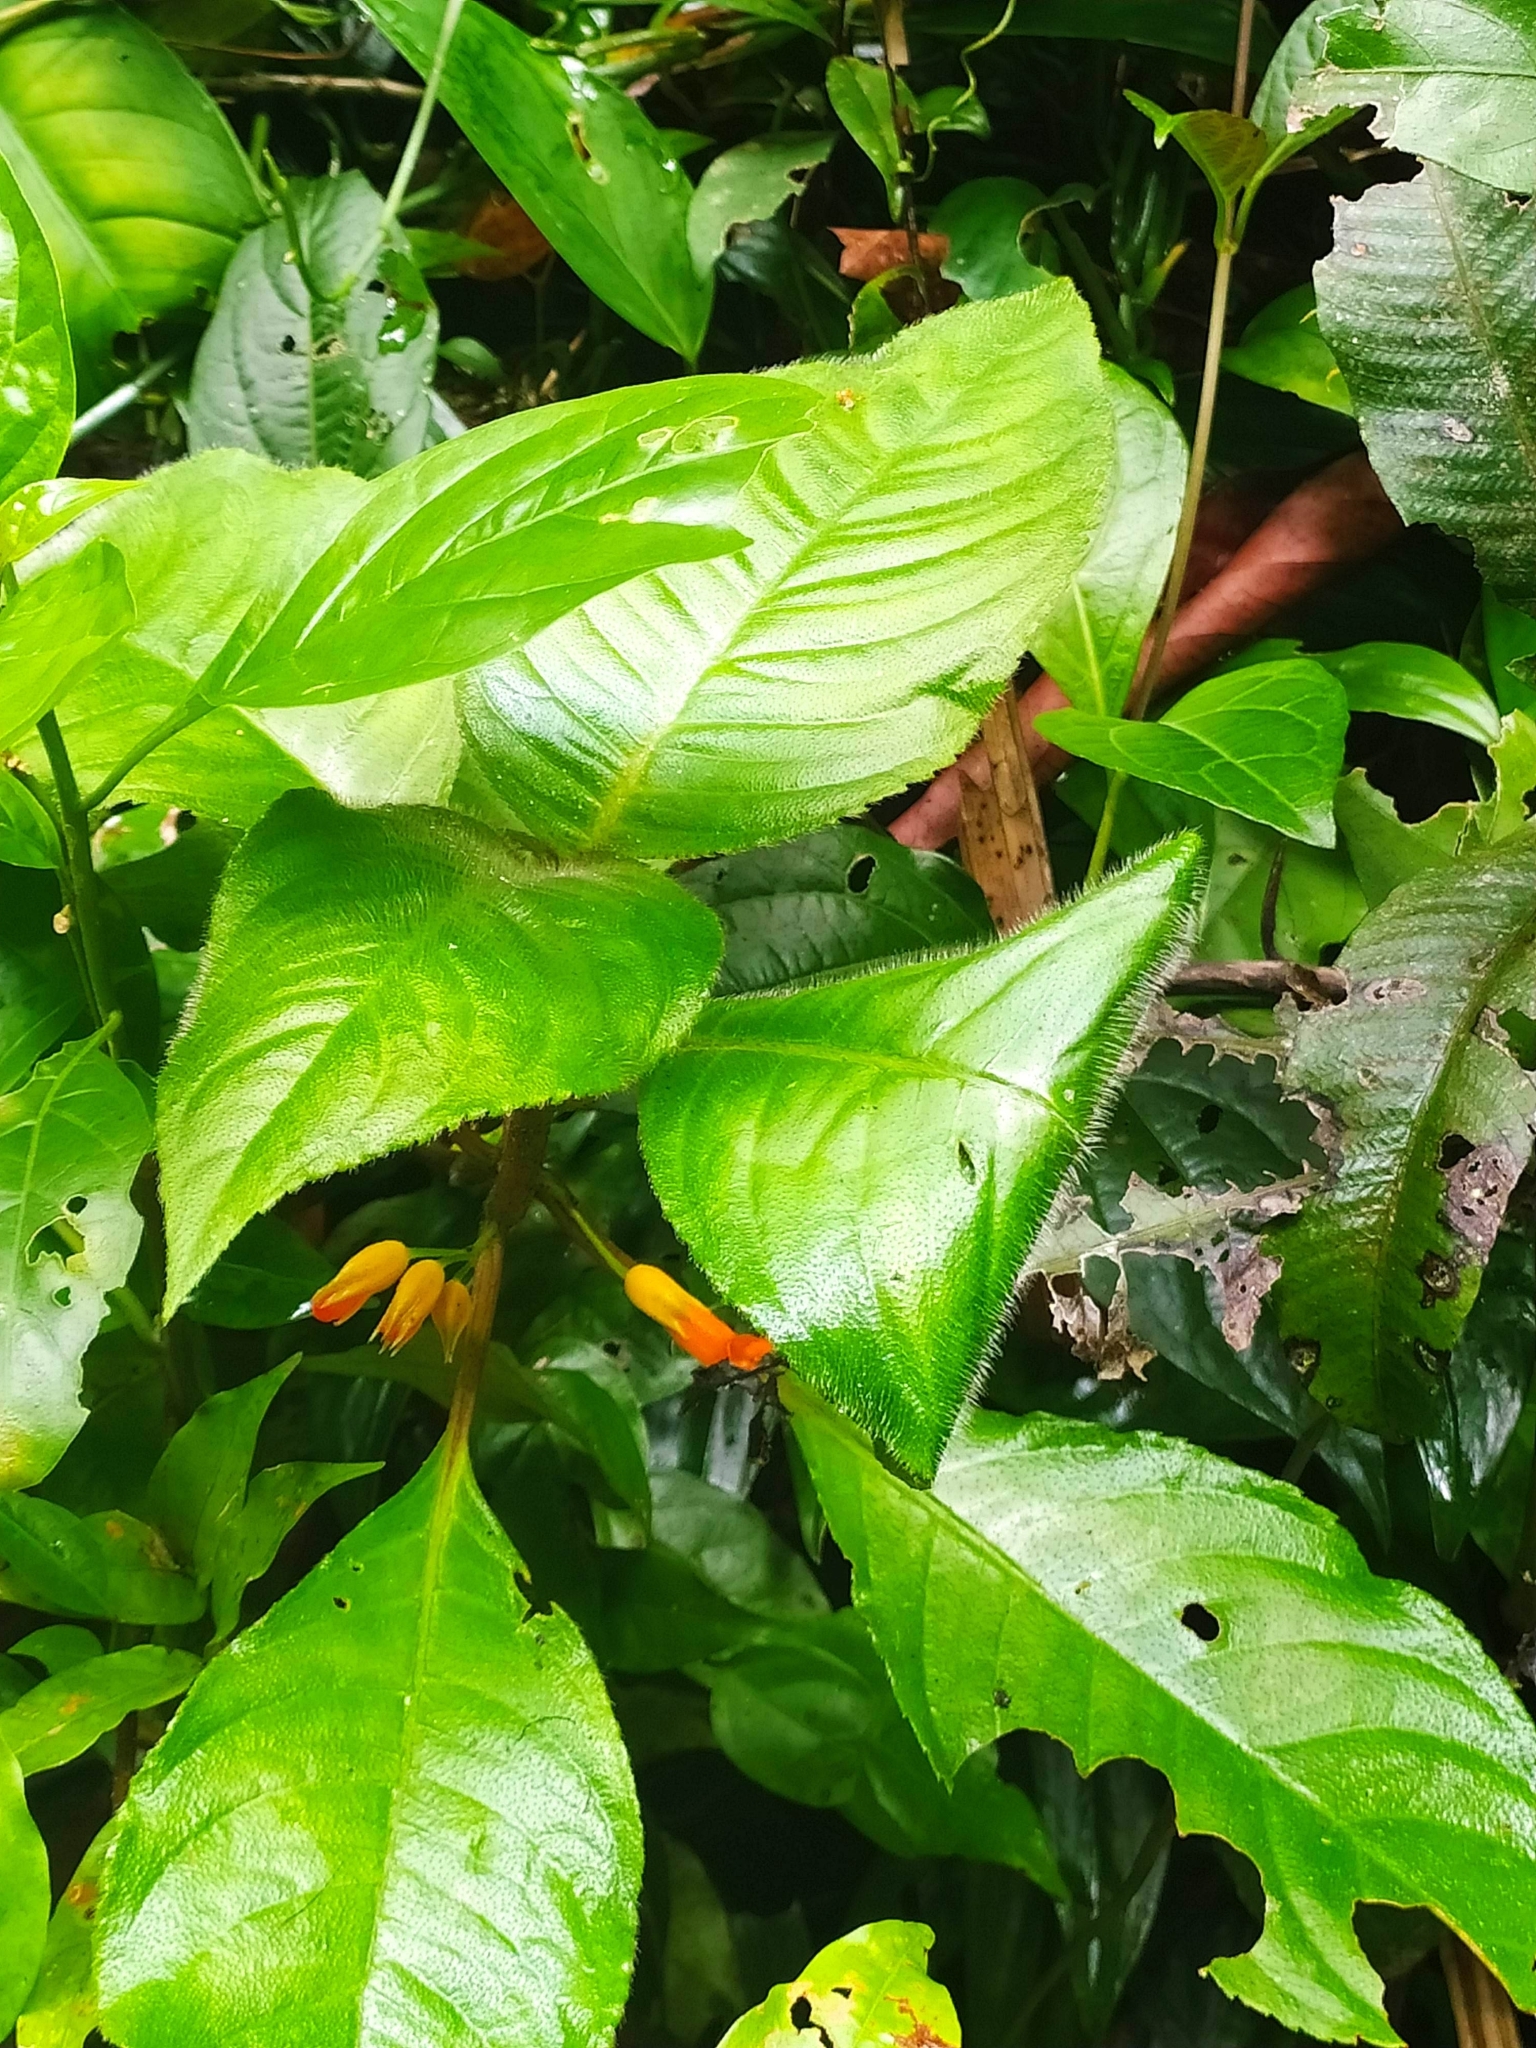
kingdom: Plantae
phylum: Tracheophyta
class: Magnoliopsida
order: Lamiales
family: Gesneriaceae
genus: Besleria
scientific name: Besleria patrisii
